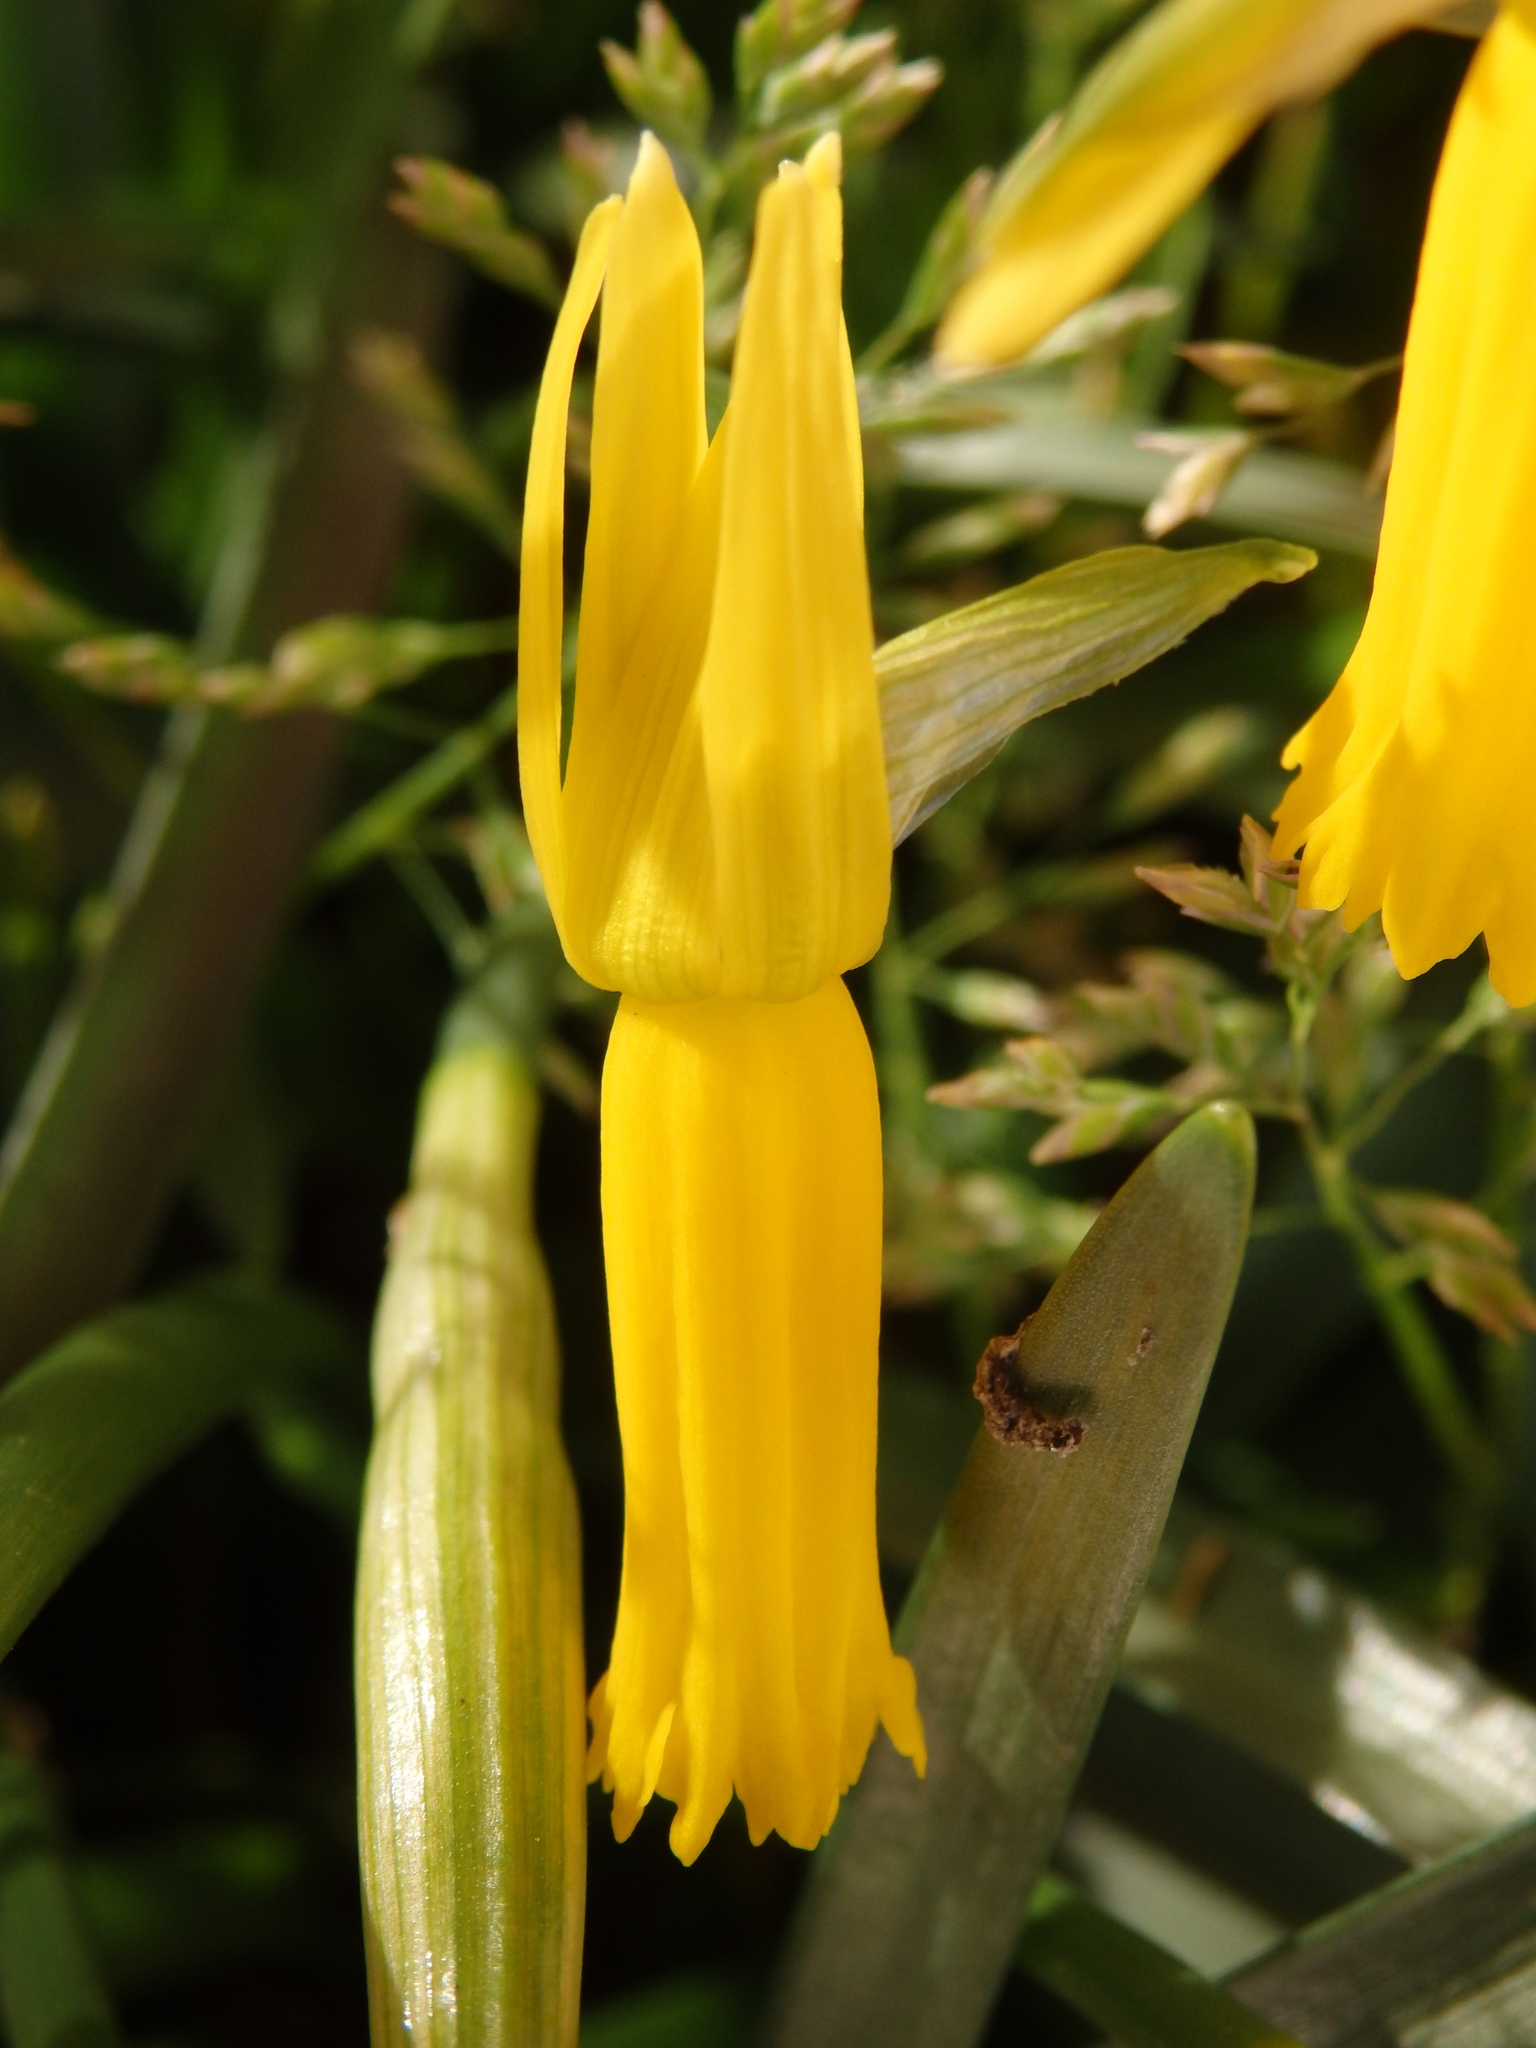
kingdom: Plantae
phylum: Tracheophyta
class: Liliopsida
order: Asparagales
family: Amaryllidaceae
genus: Narcissus
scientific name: Narcissus cyclamineus
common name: Cyclamen-flowered daffodil
